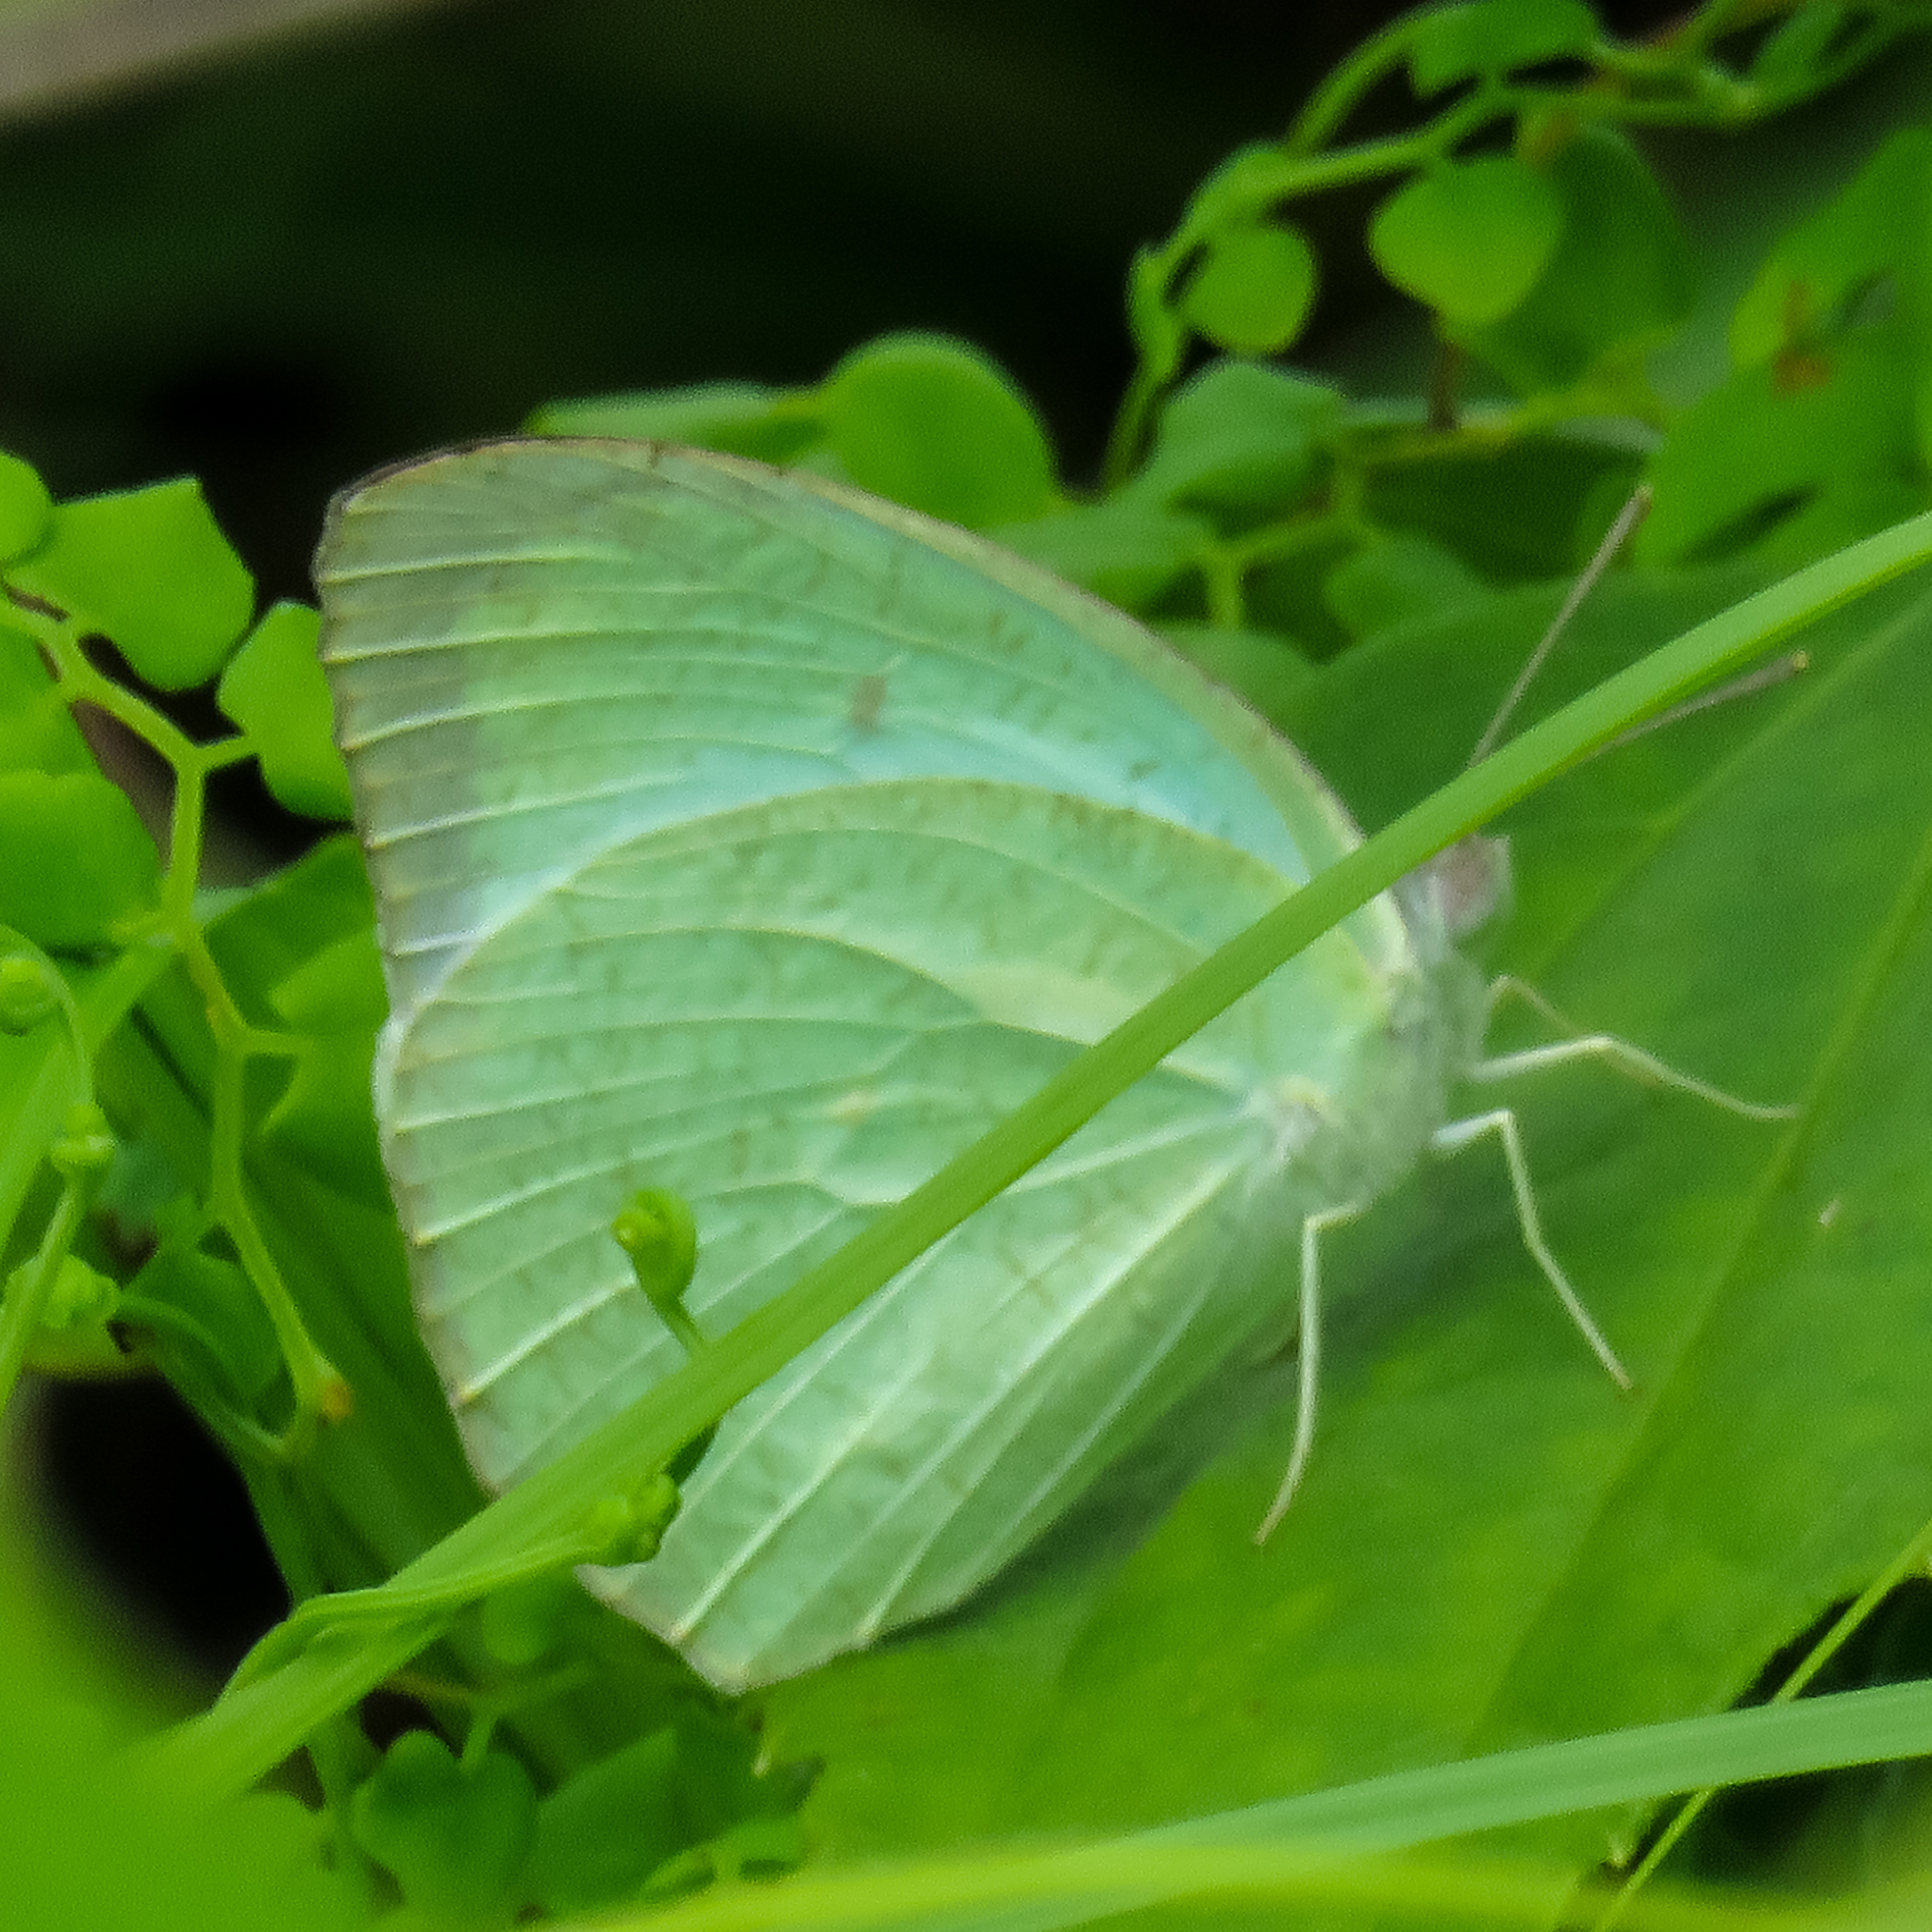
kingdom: Animalia
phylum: Arthropoda
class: Insecta
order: Lepidoptera
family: Pieridae
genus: Catopsilia
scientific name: Catopsilia pyranthe
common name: Mottled emigrant
